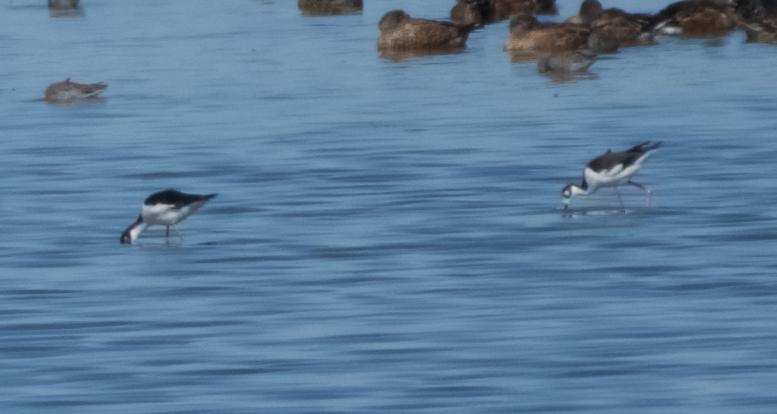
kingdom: Animalia
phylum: Chordata
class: Aves
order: Charadriiformes
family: Recurvirostridae
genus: Himantopus
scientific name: Himantopus mexicanus
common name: Black-necked stilt
